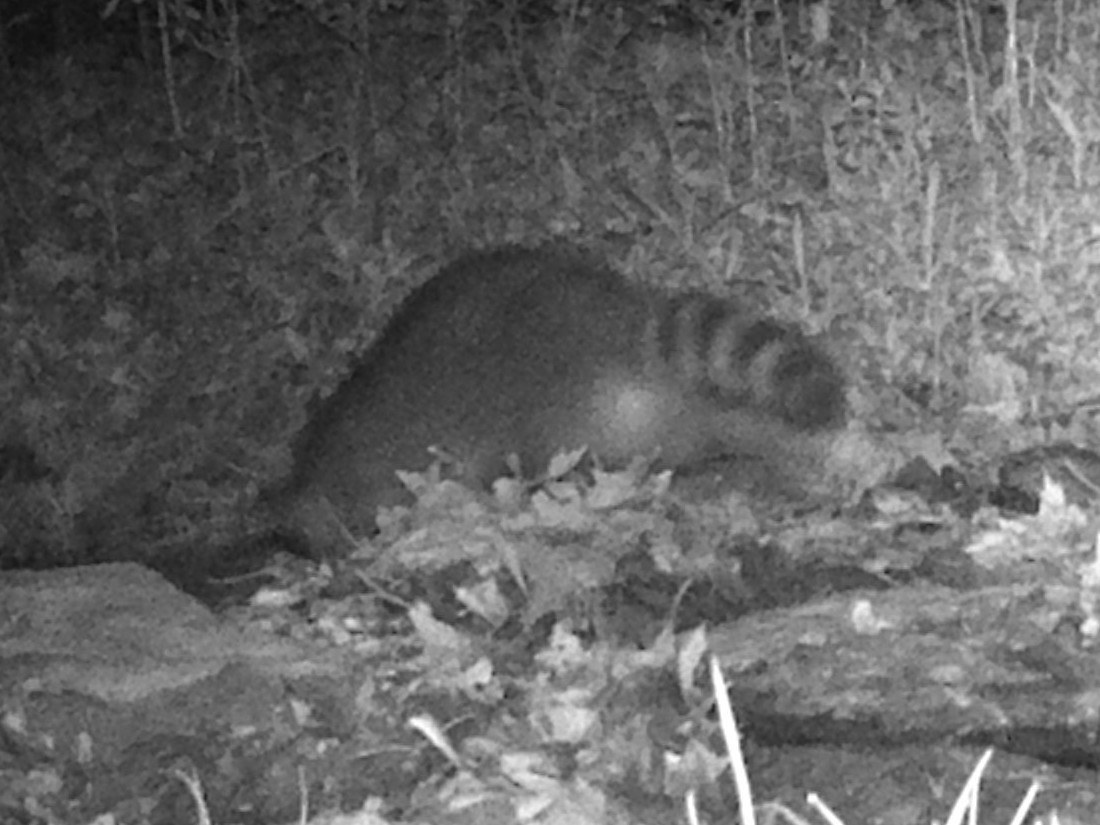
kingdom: Animalia
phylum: Chordata
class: Mammalia
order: Carnivora
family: Procyonidae
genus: Procyon
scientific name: Procyon lotor
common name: Raccoon
